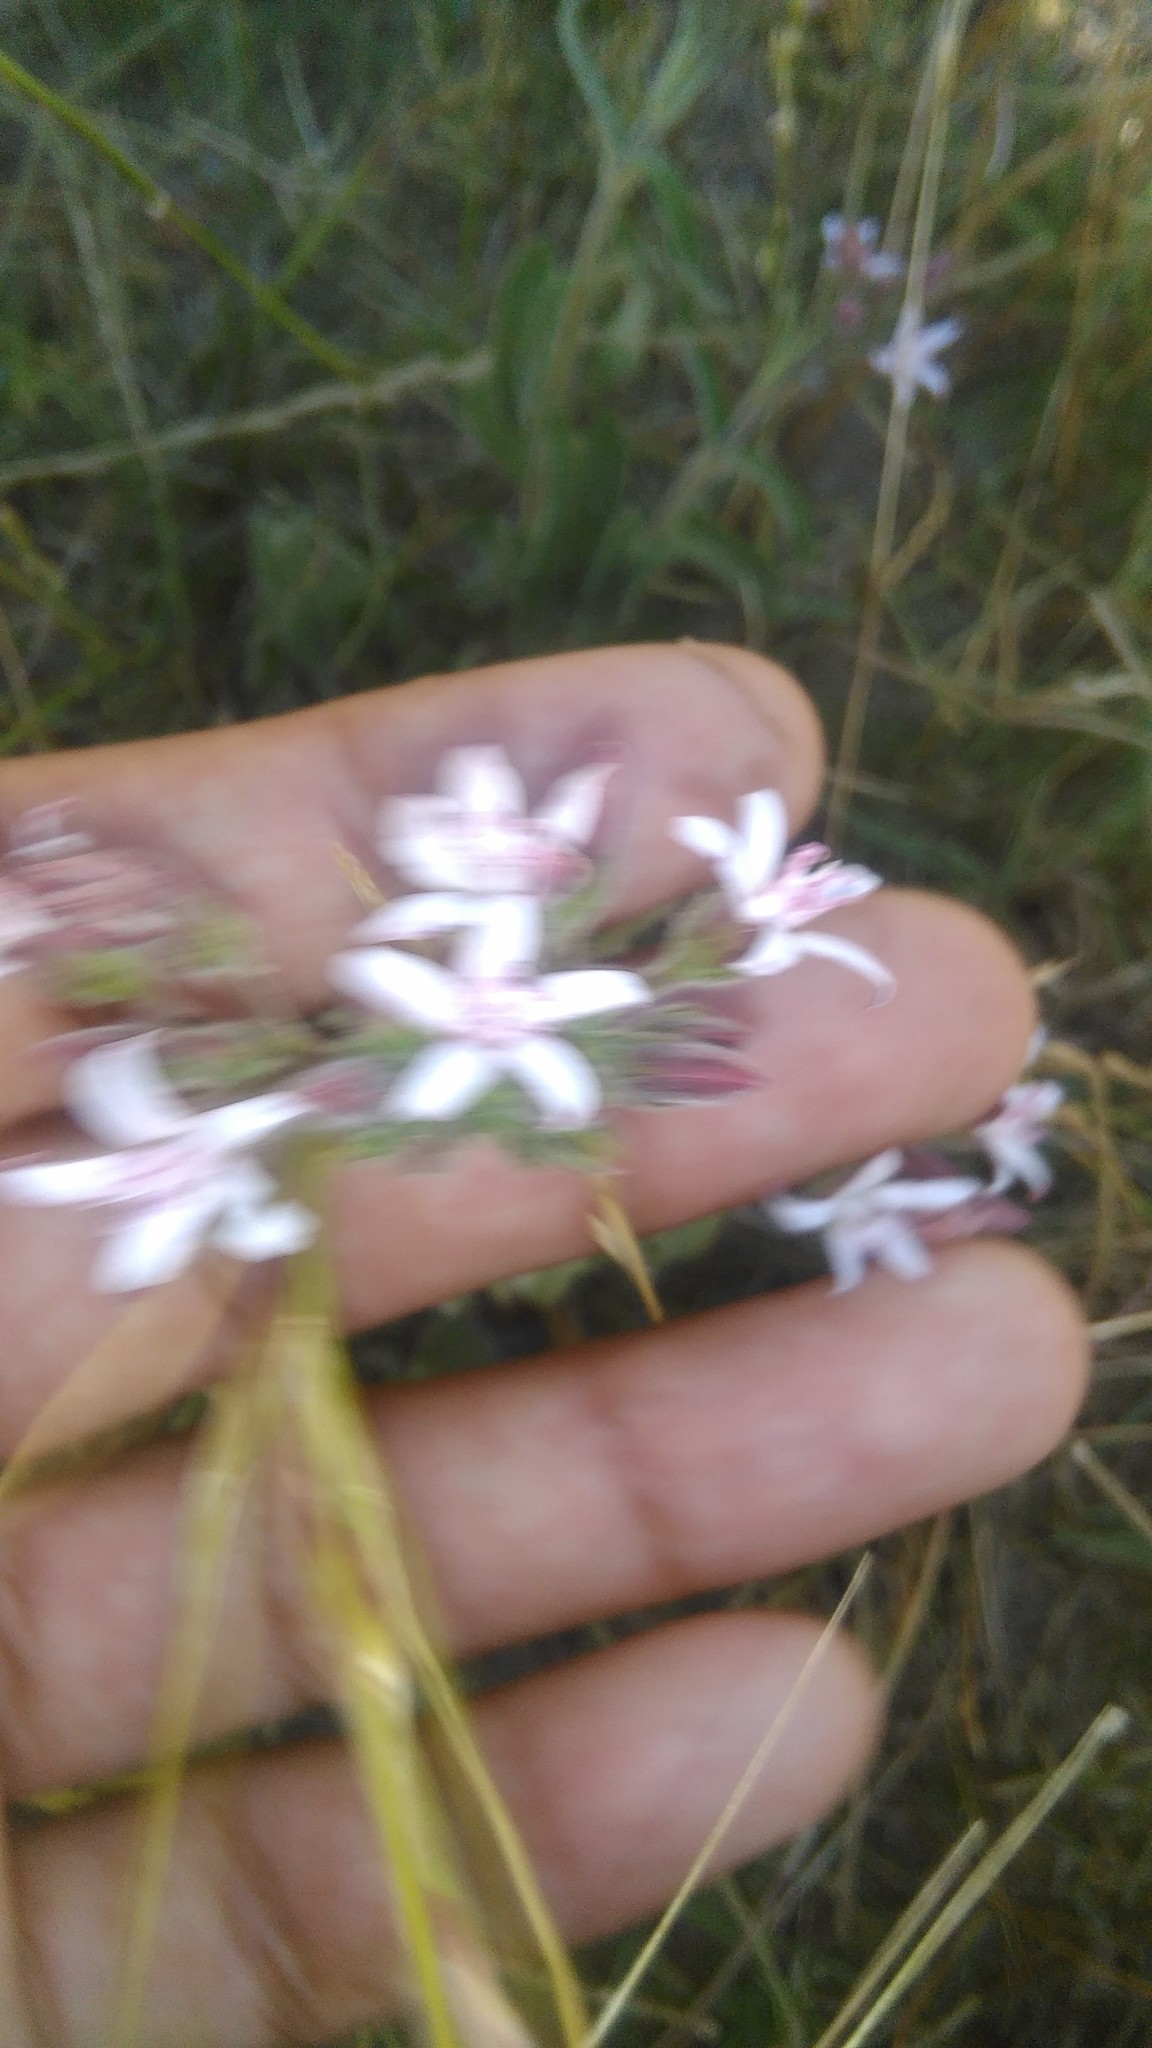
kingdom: Plantae
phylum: Tracheophyta
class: Magnoliopsida
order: Gentianales
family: Apocynaceae
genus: Oxypetalum
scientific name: Oxypetalum solanoides
